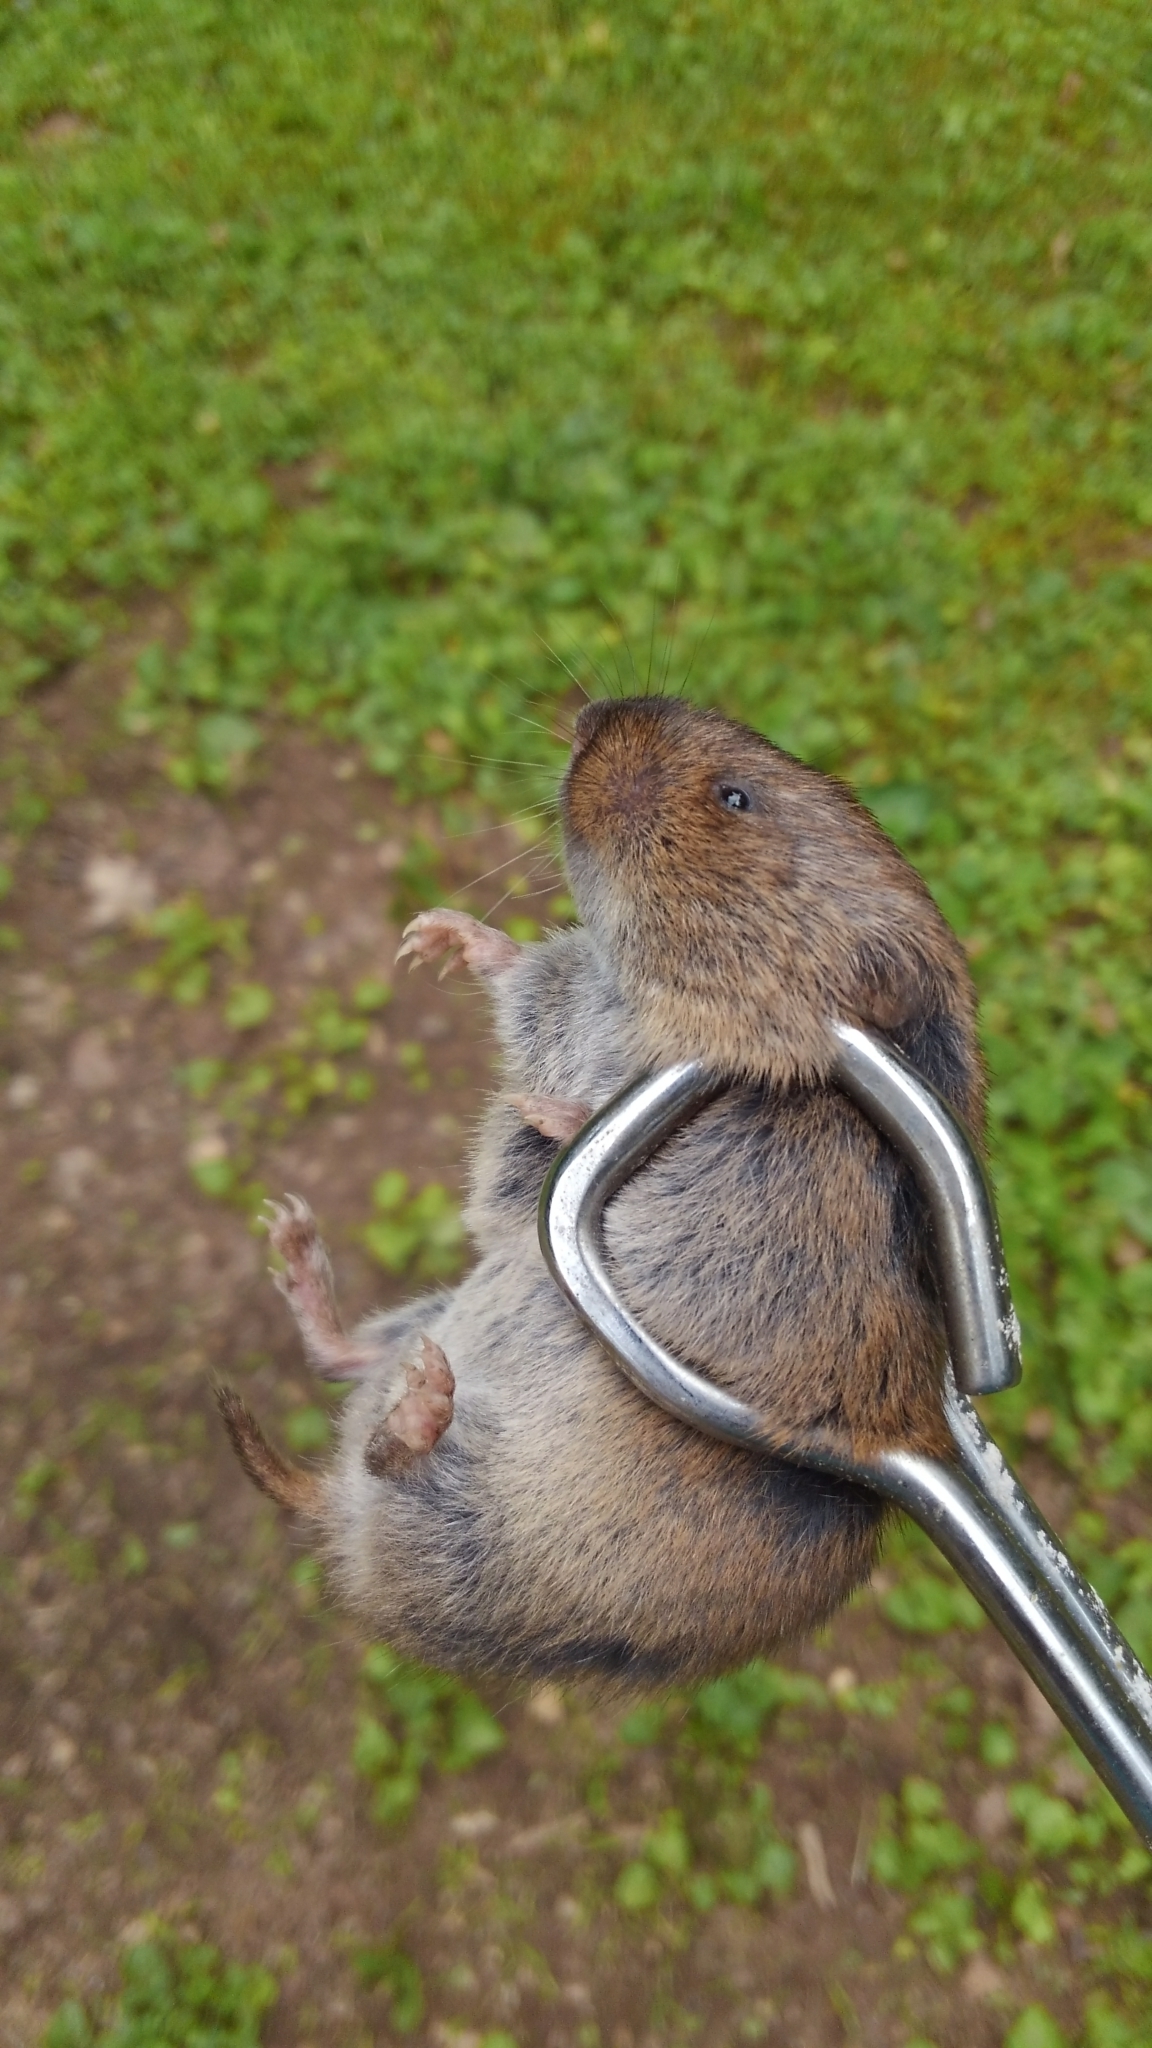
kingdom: Animalia
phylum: Chordata
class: Mammalia
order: Rodentia
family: Cricetidae
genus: Microtus
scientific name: Microtus pinetorum
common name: Woodland vole
